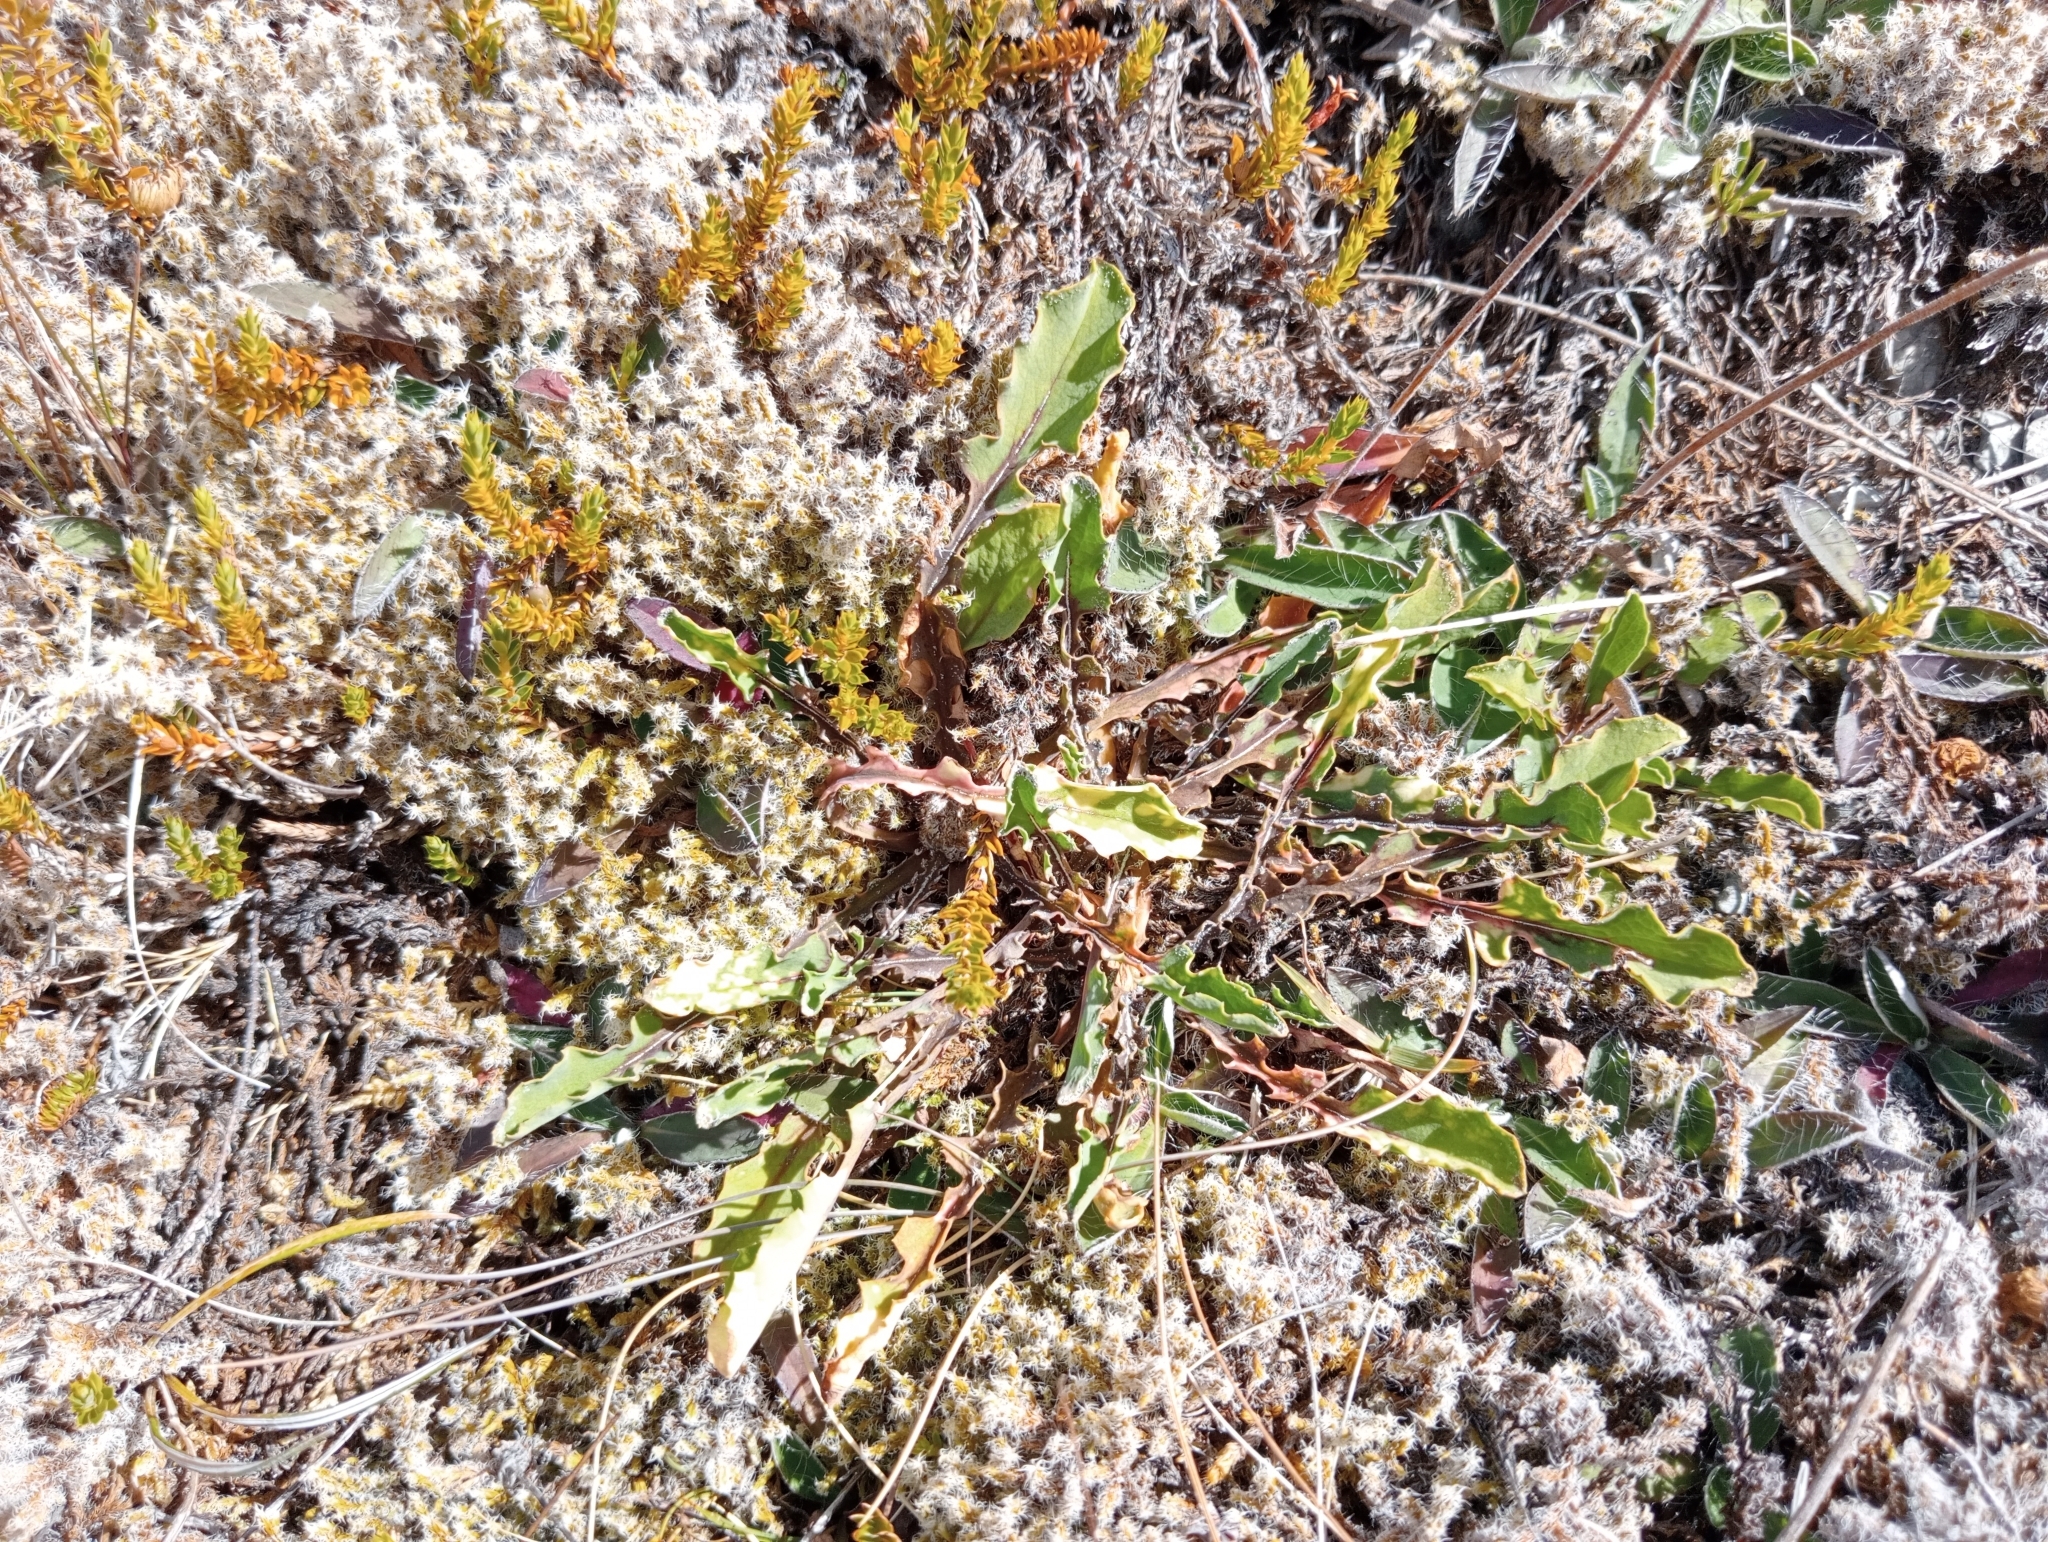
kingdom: Plantae
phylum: Tracheophyta
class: Magnoliopsida
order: Asterales
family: Asteraceae
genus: Sonchus
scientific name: Sonchus novae-zelandiae
